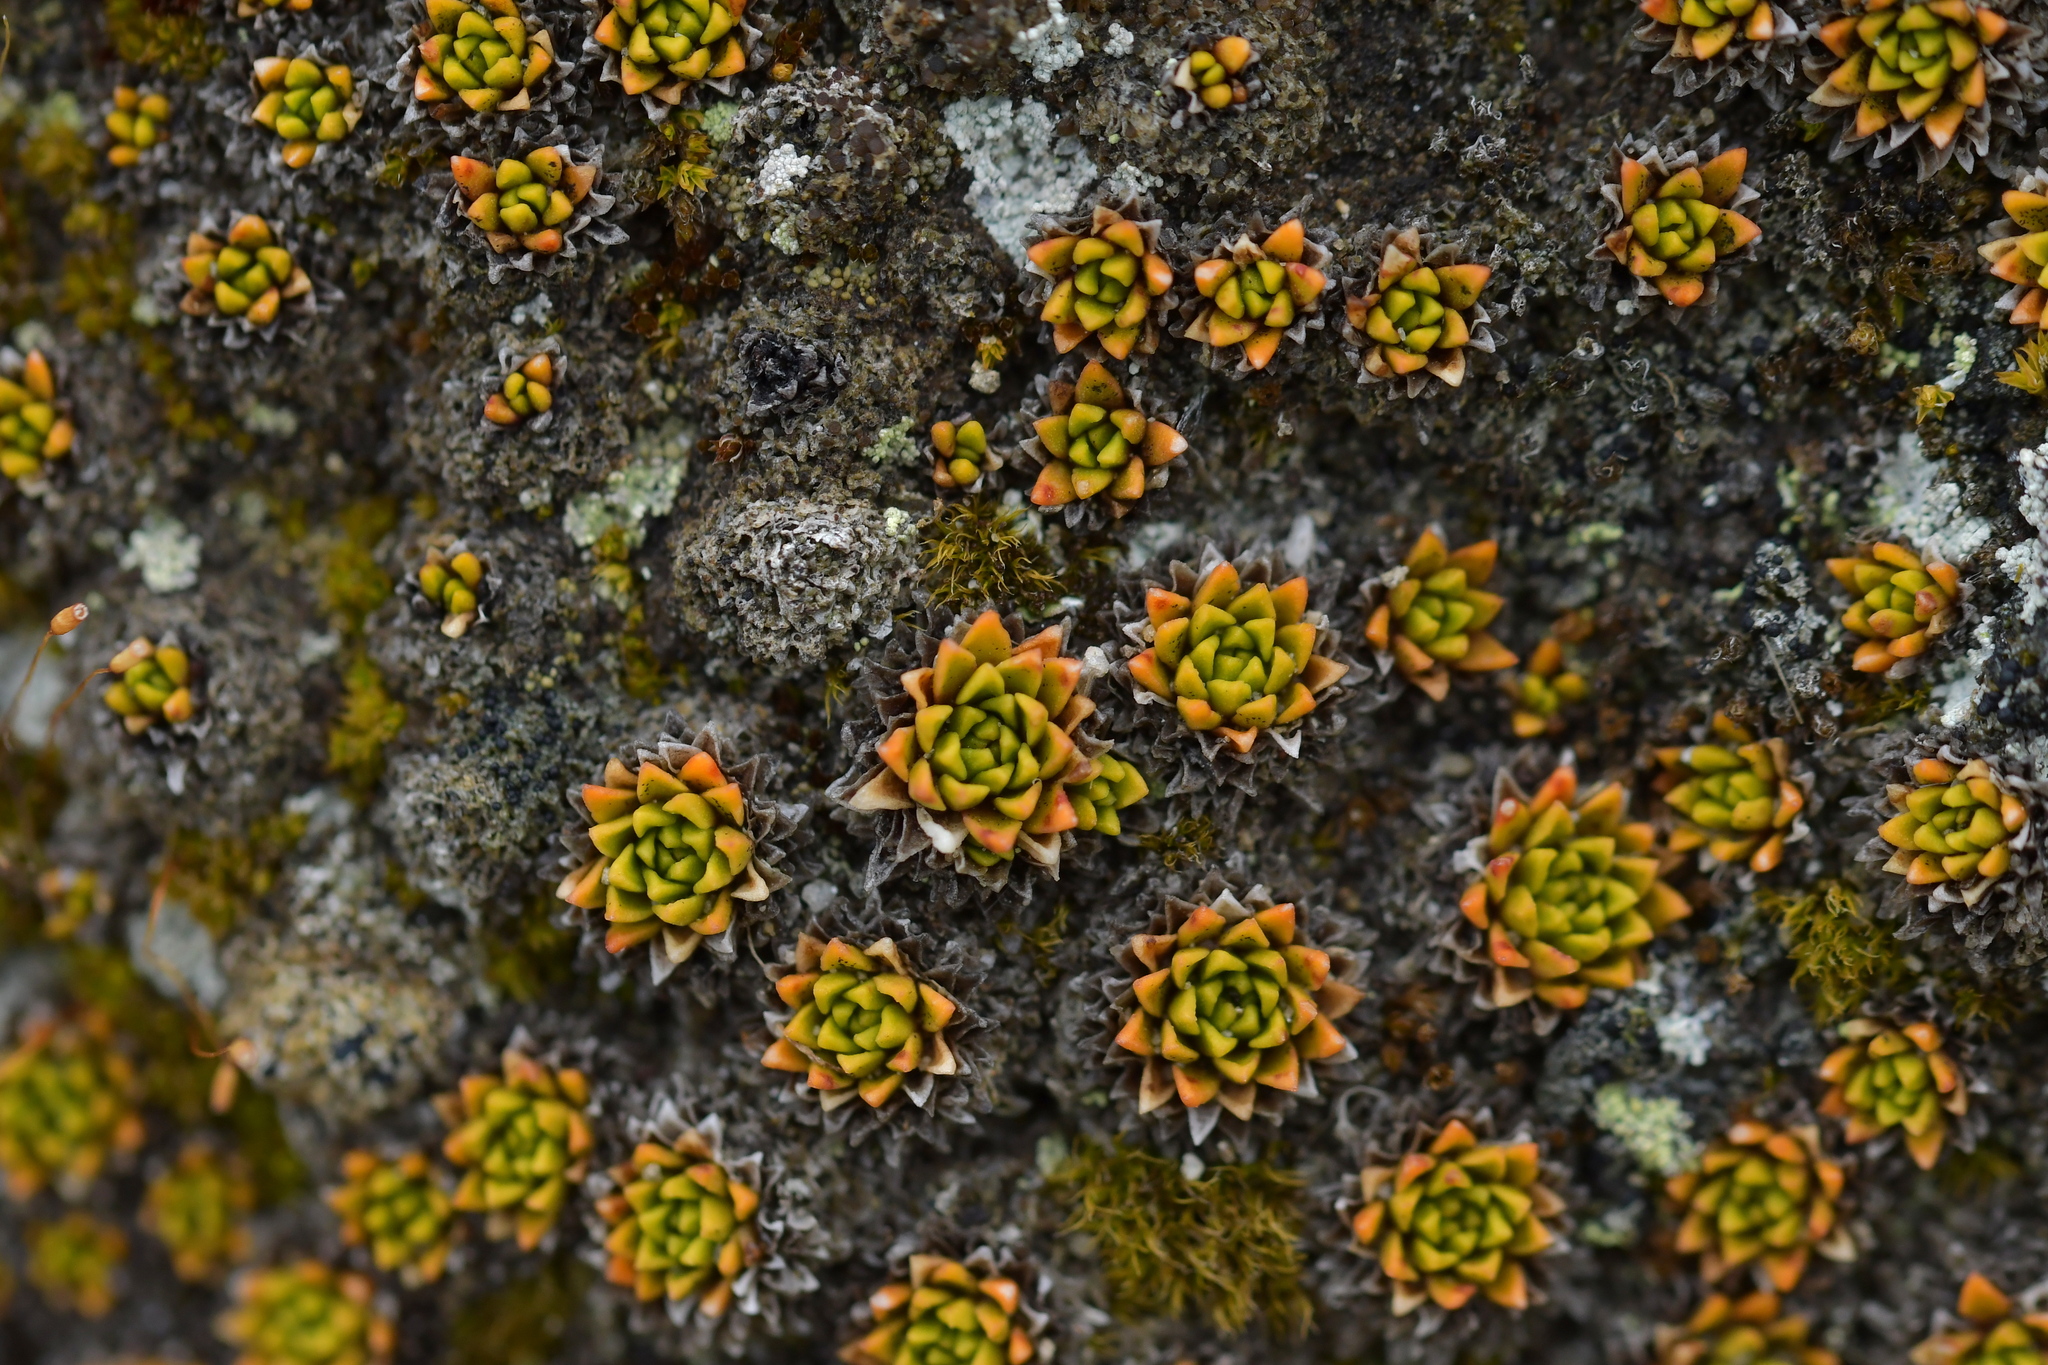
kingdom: Plantae
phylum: Tracheophyta
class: Magnoliopsida
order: Caryophyllales
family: Montiaceae
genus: Hectorella
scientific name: Hectorella caespitosa
